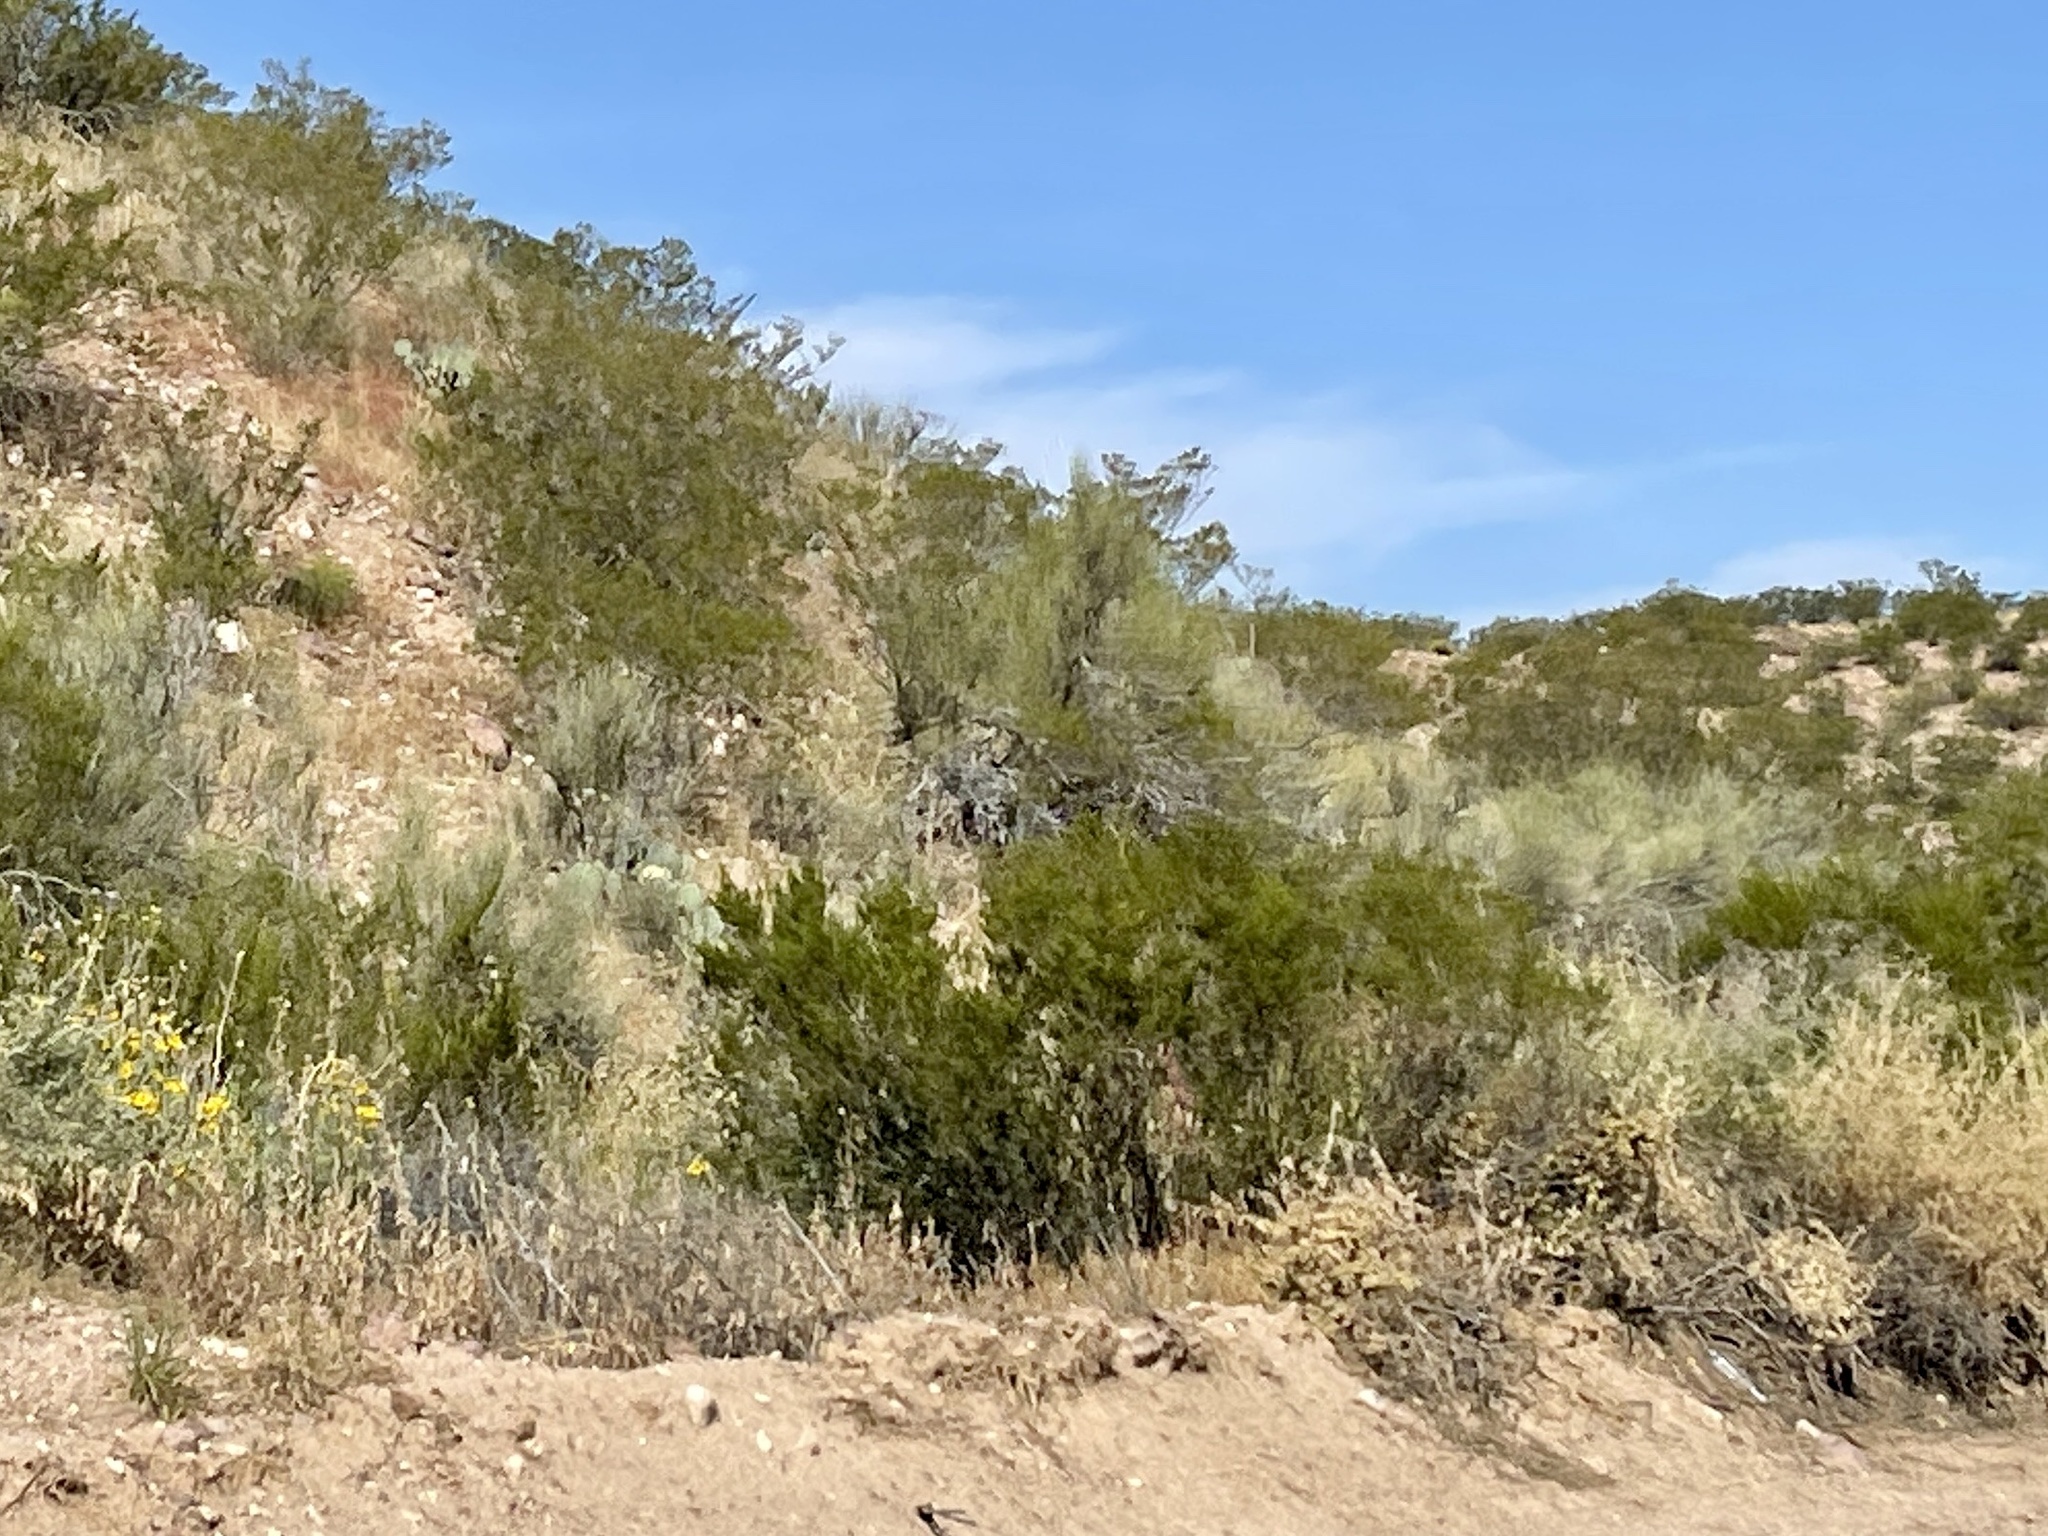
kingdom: Plantae
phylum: Tracheophyta
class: Magnoliopsida
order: Zygophyllales
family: Zygophyllaceae
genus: Larrea
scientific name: Larrea tridentata
